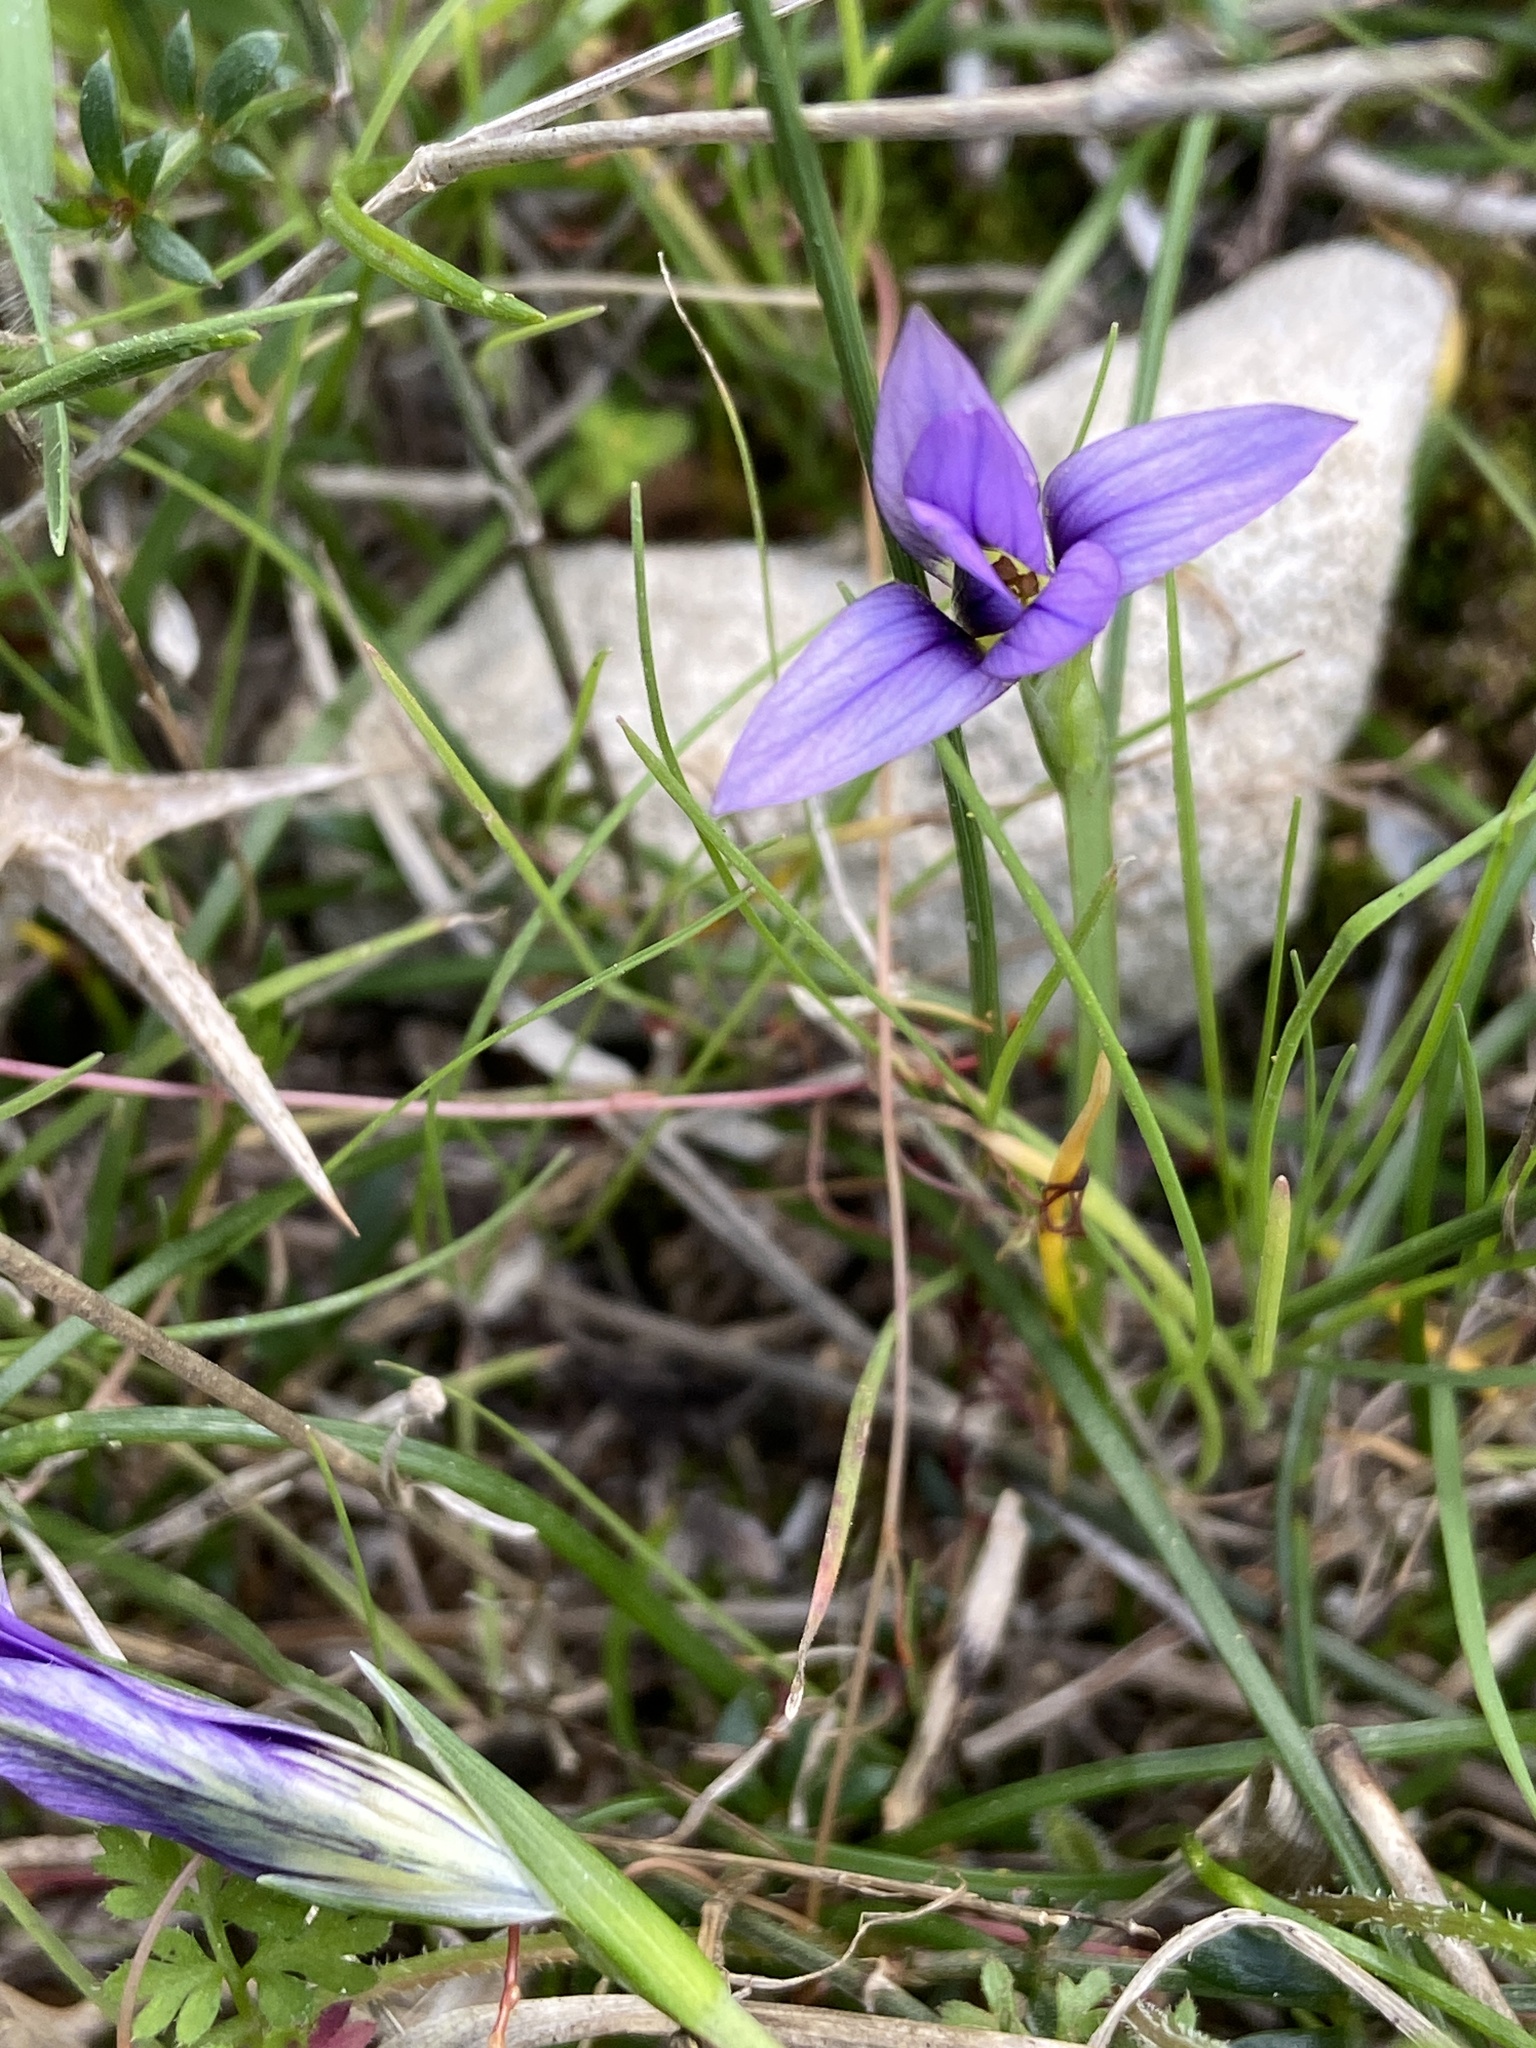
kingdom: Plantae
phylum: Tracheophyta
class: Liliopsida
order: Asparagales
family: Iridaceae
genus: Romulea
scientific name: Romulea variicolor
